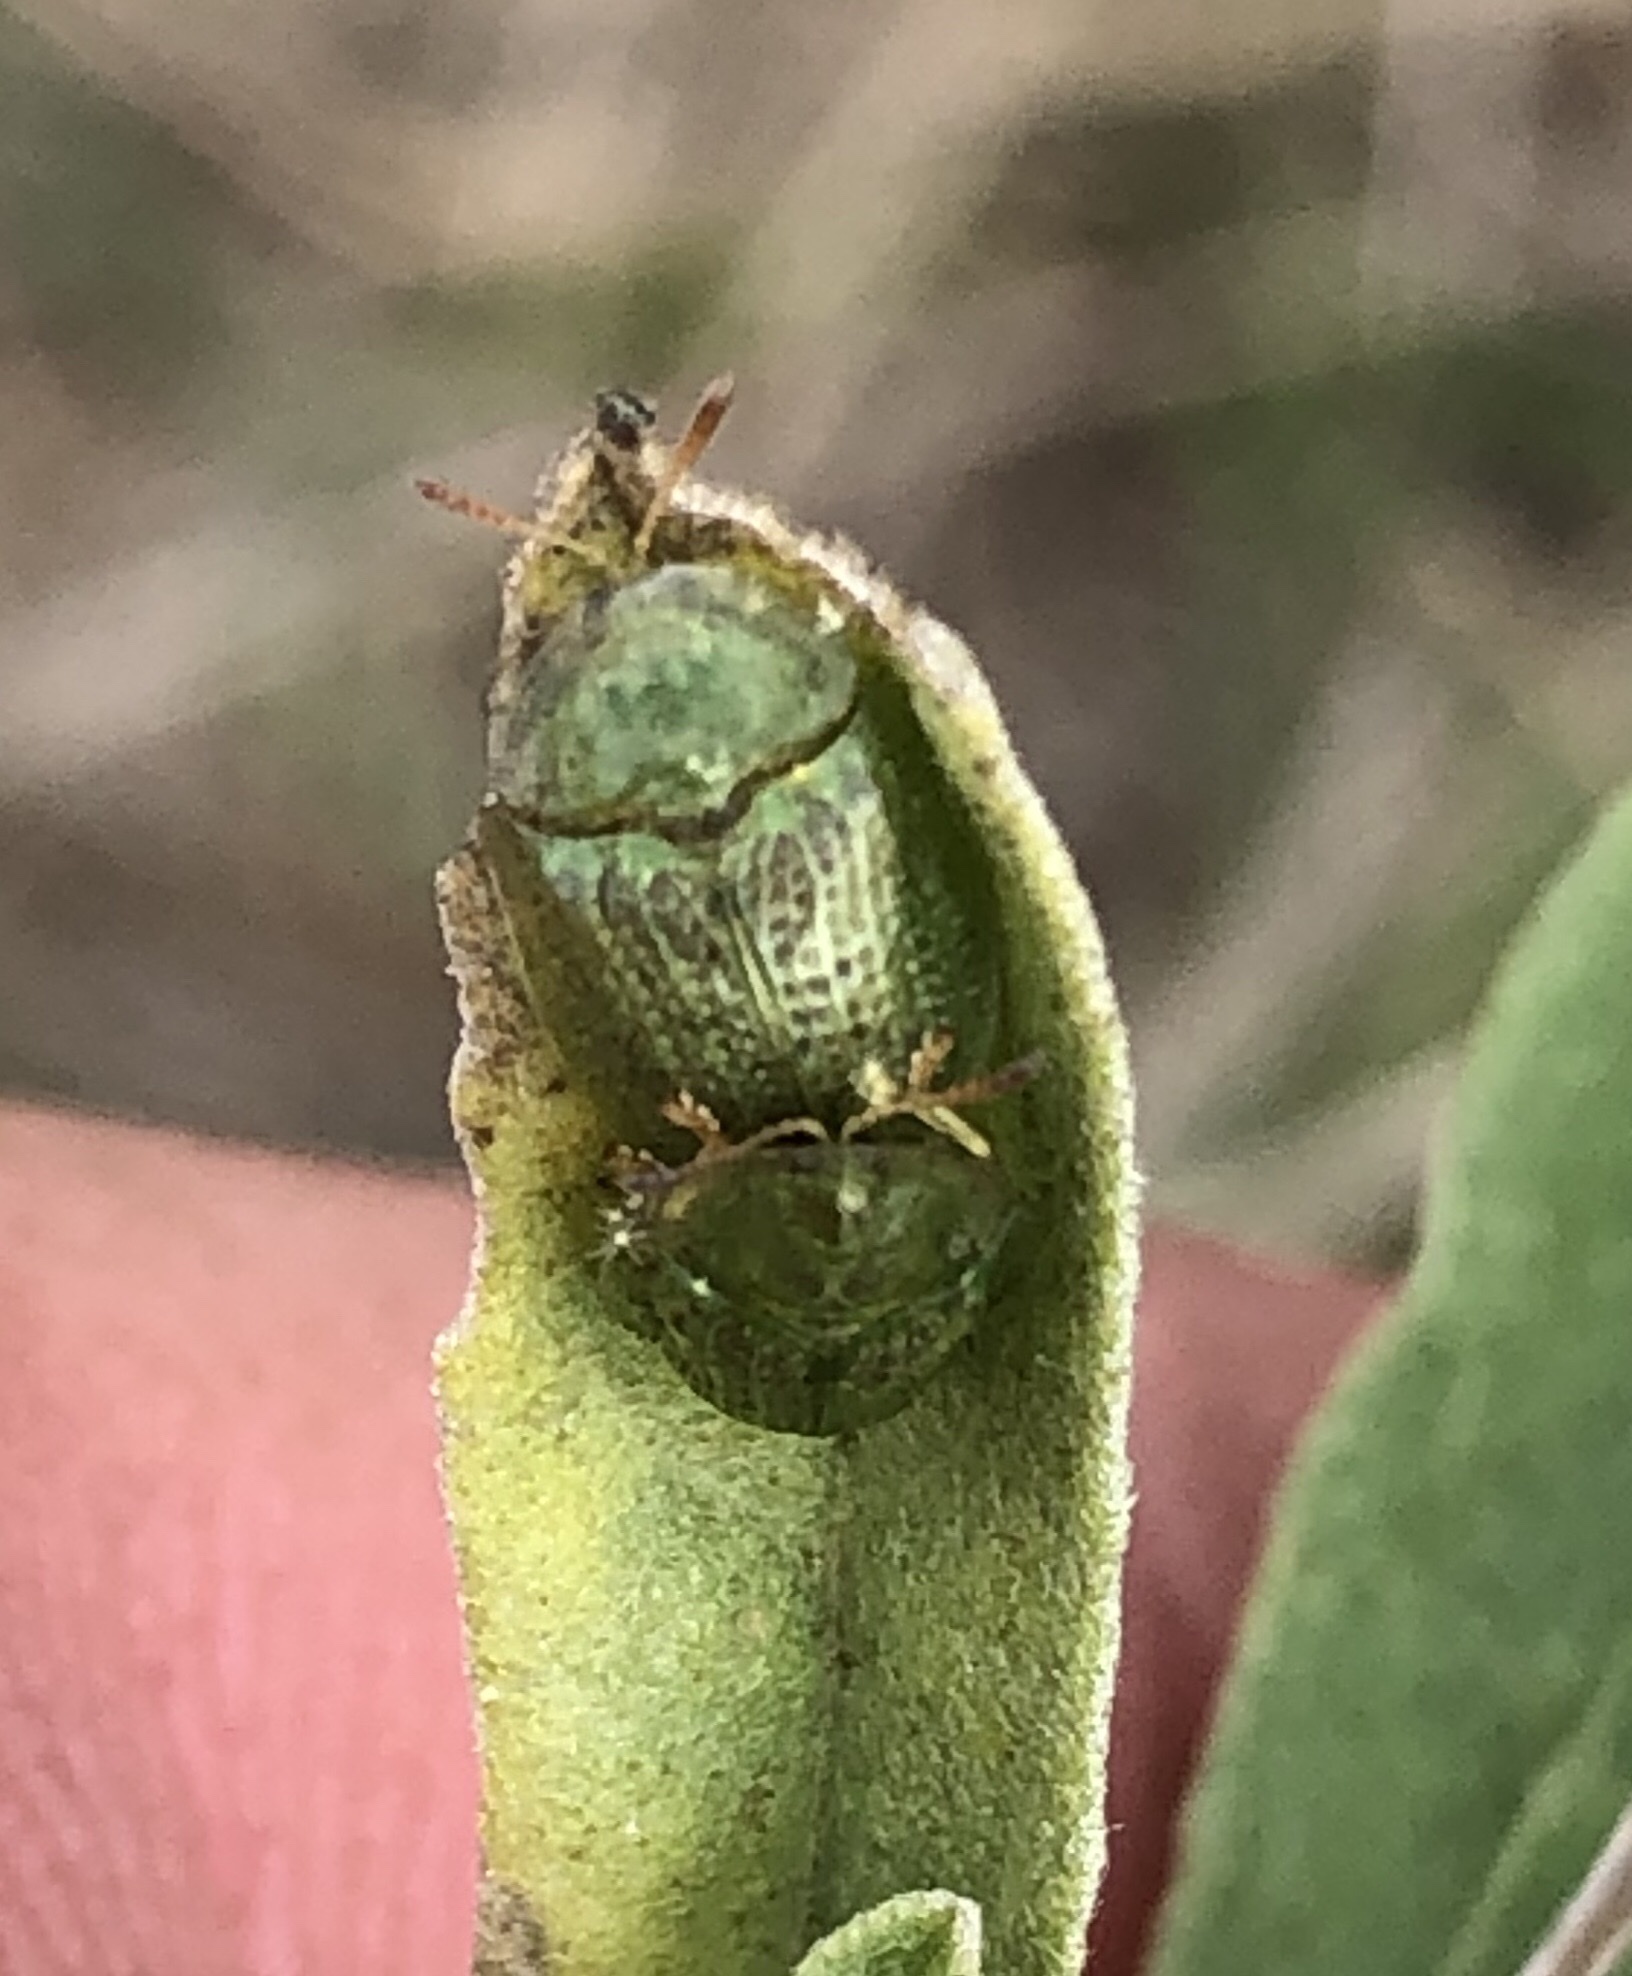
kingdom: Animalia
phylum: Arthropoda
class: Insecta
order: Coleoptera
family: Chrysomelidae
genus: Gratiana
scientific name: Gratiana pallidula
